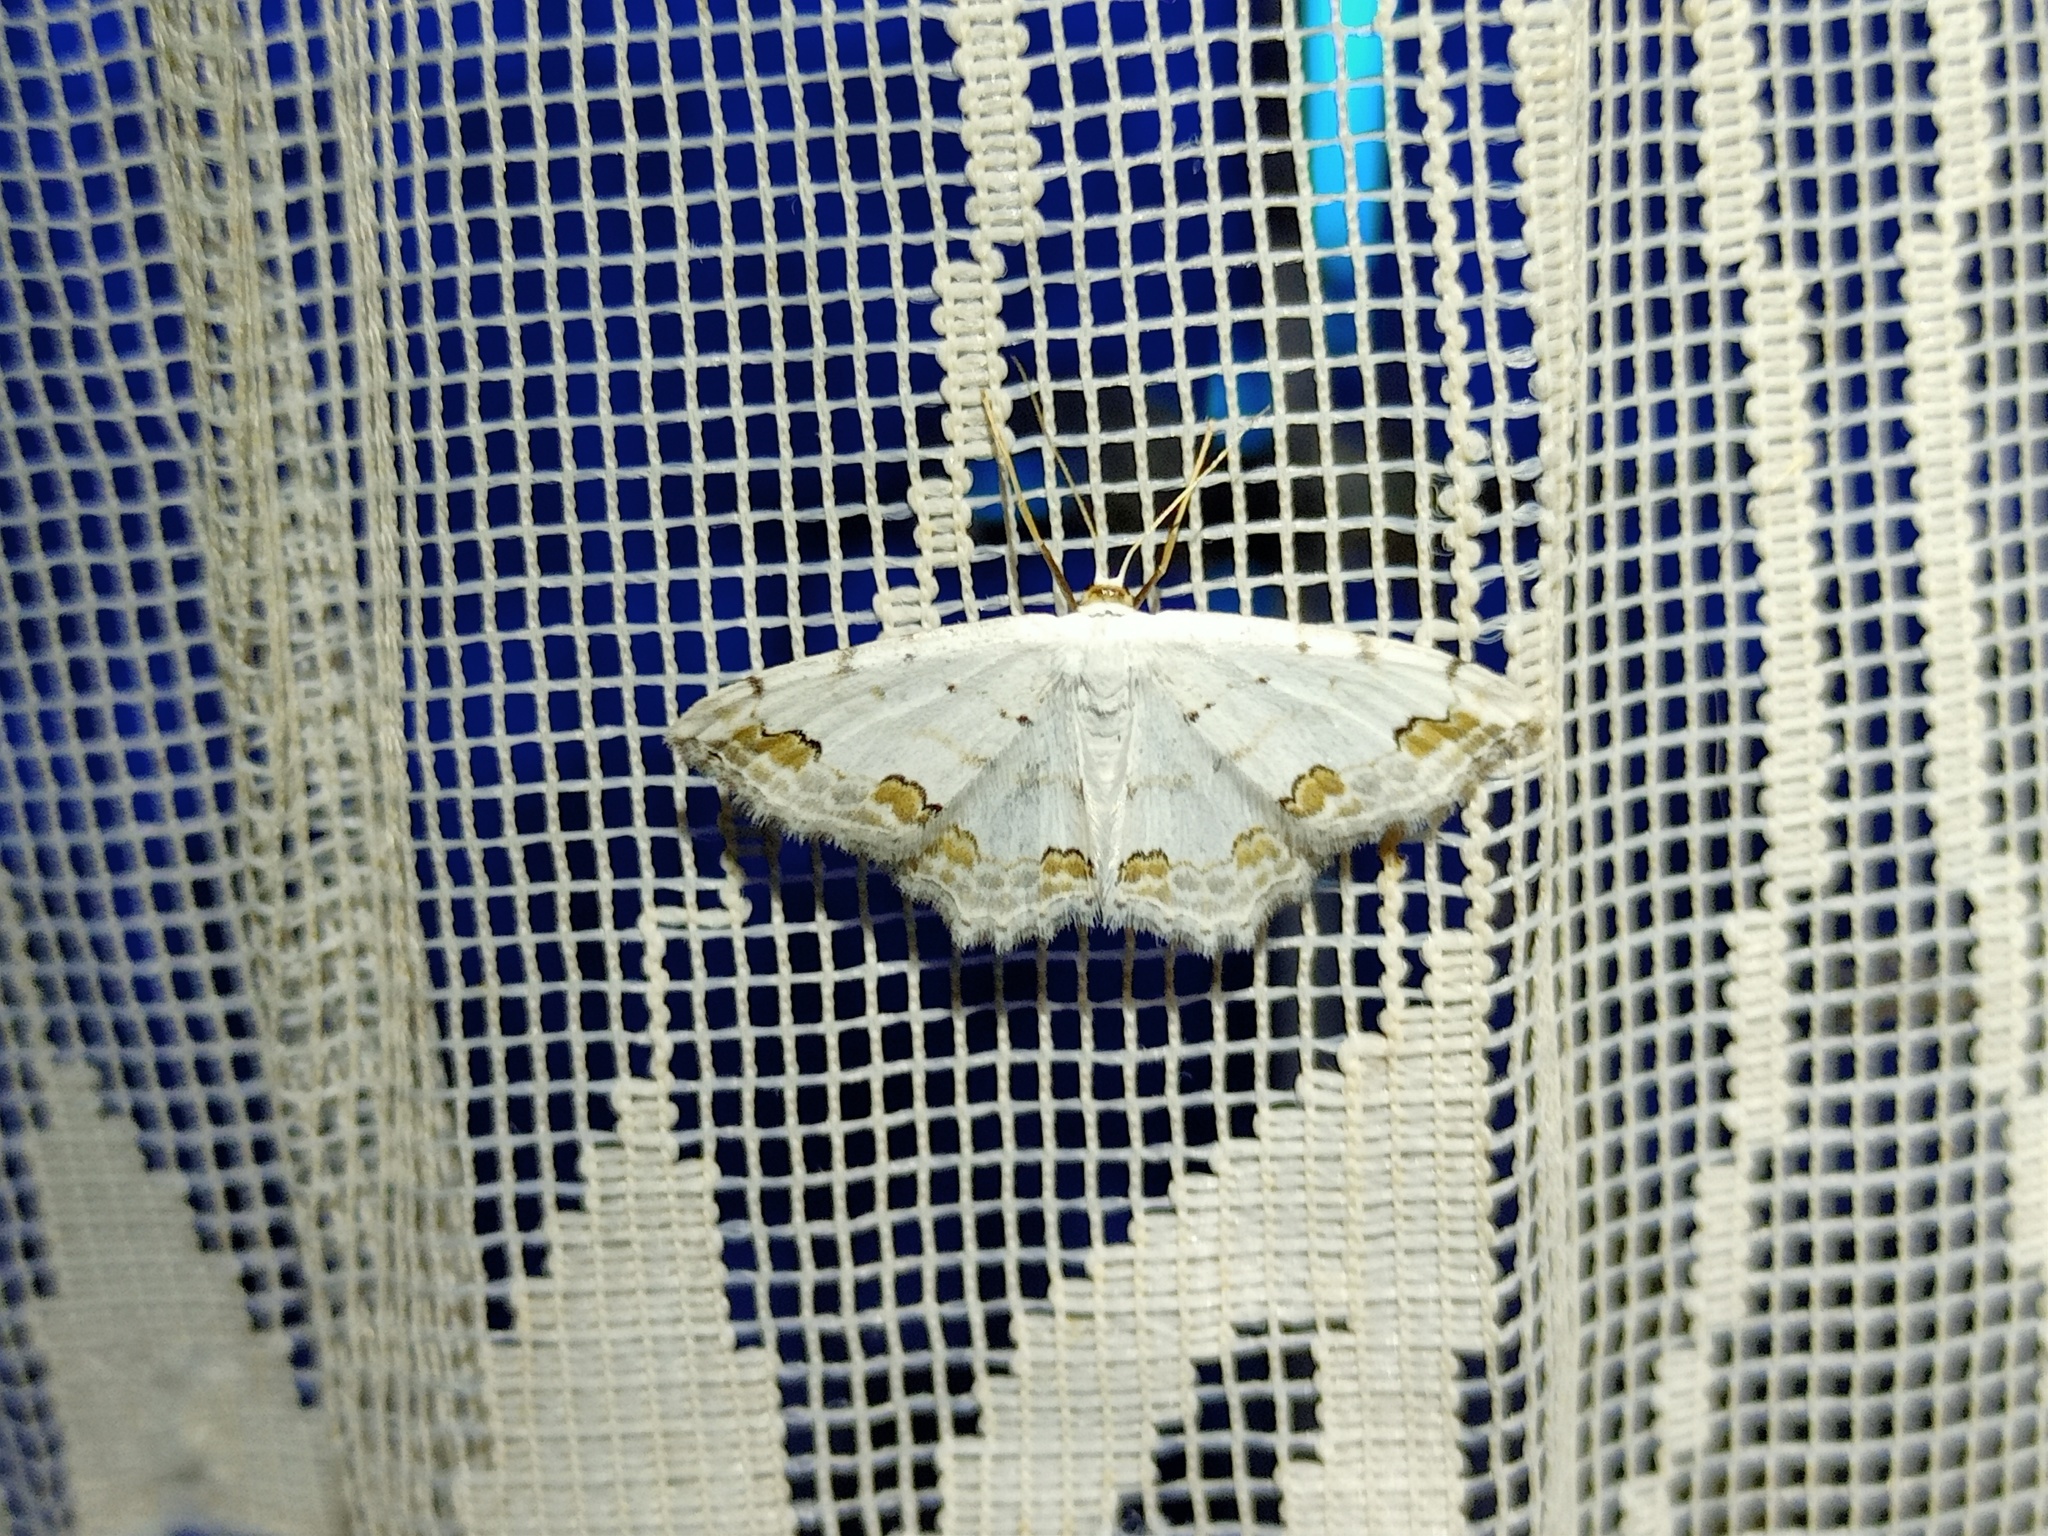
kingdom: Animalia
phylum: Arthropoda
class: Insecta
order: Lepidoptera
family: Geometridae
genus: Scopula
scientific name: Scopula ornata
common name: Lace border
